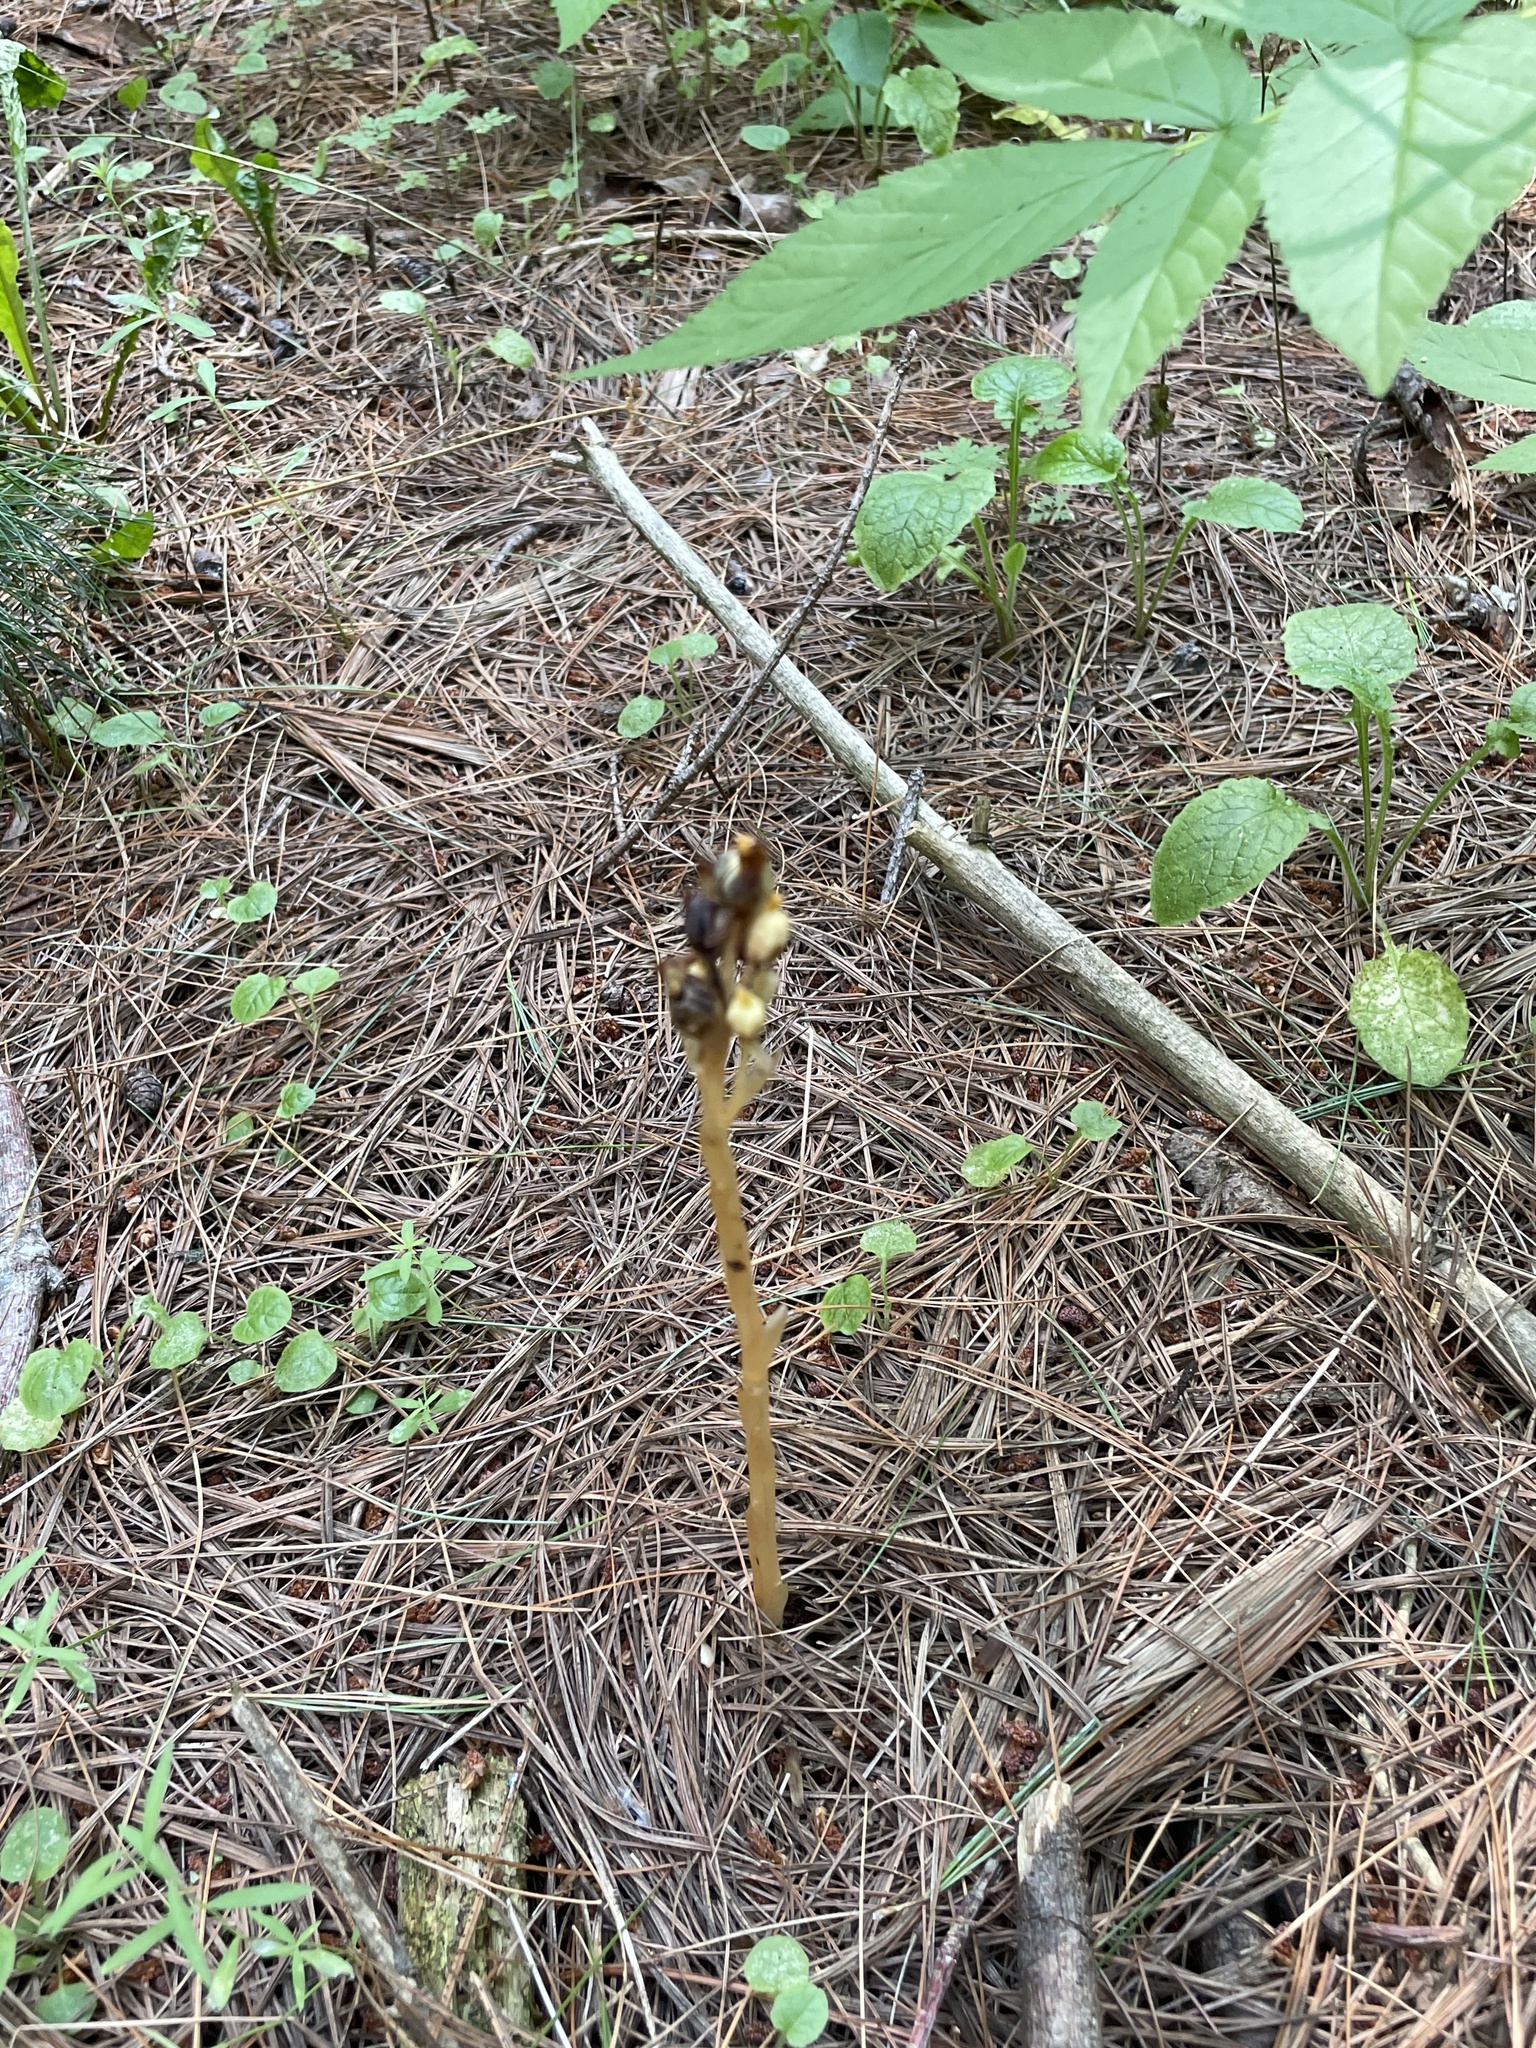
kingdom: Plantae
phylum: Tracheophyta
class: Magnoliopsida
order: Ericales
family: Ericaceae
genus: Hypopitys
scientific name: Hypopitys monotropa
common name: Yellow bird's-nest
